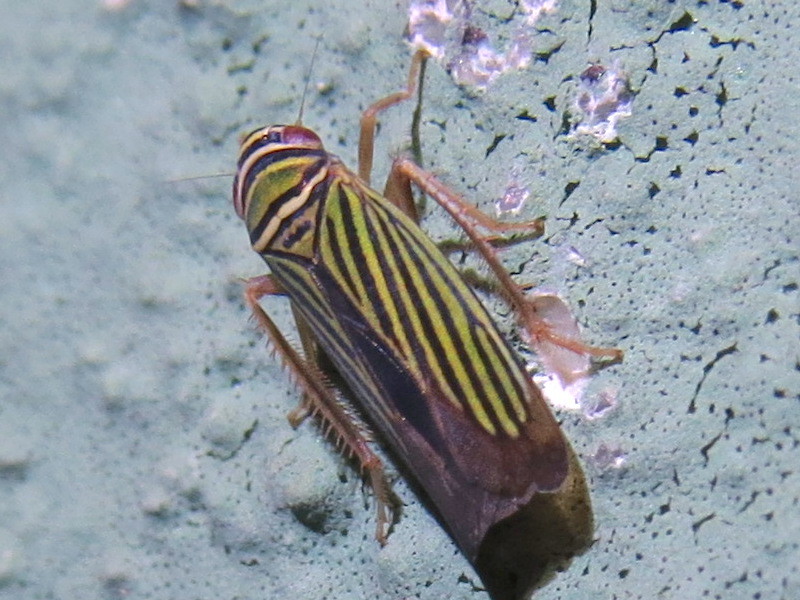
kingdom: Animalia
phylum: Arthropoda
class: Insecta
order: Hemiptera
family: Cicadellidae
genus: Tylozygus
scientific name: Tylozygus bifidus
